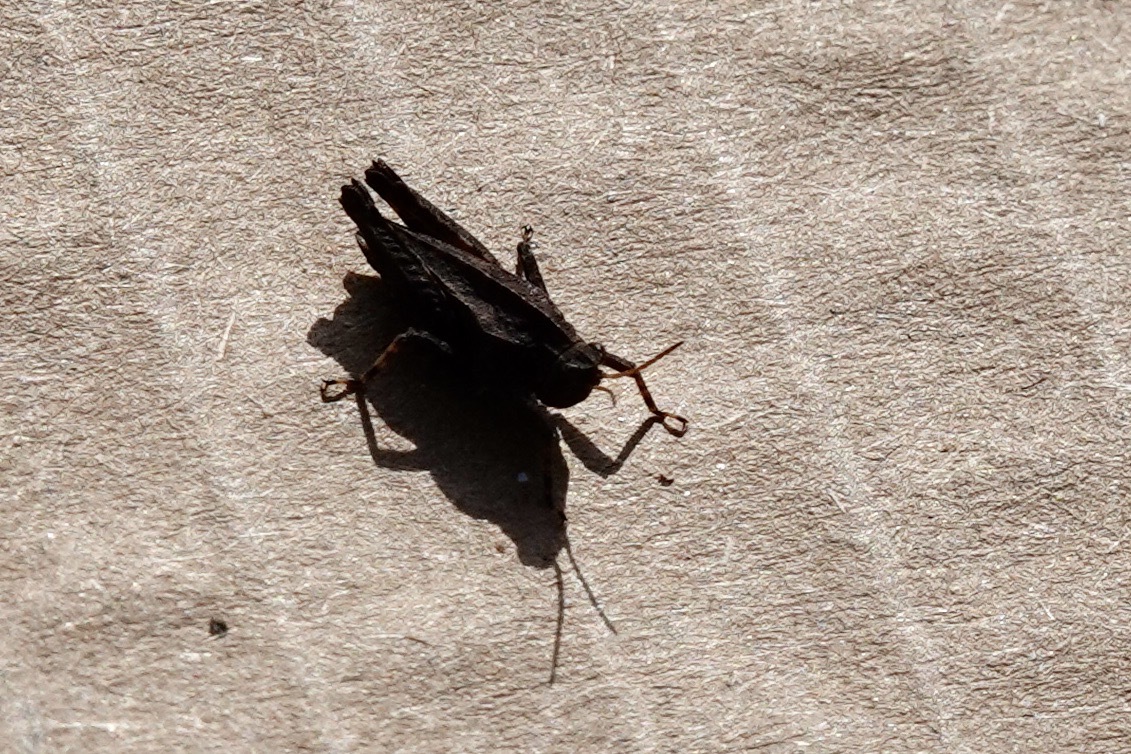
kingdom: Animalia
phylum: Arthropoda
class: Insecta
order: Orthoptera
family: Tetrigidae
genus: Tetrix
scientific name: Tetrix undulata
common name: Common groundhopper
